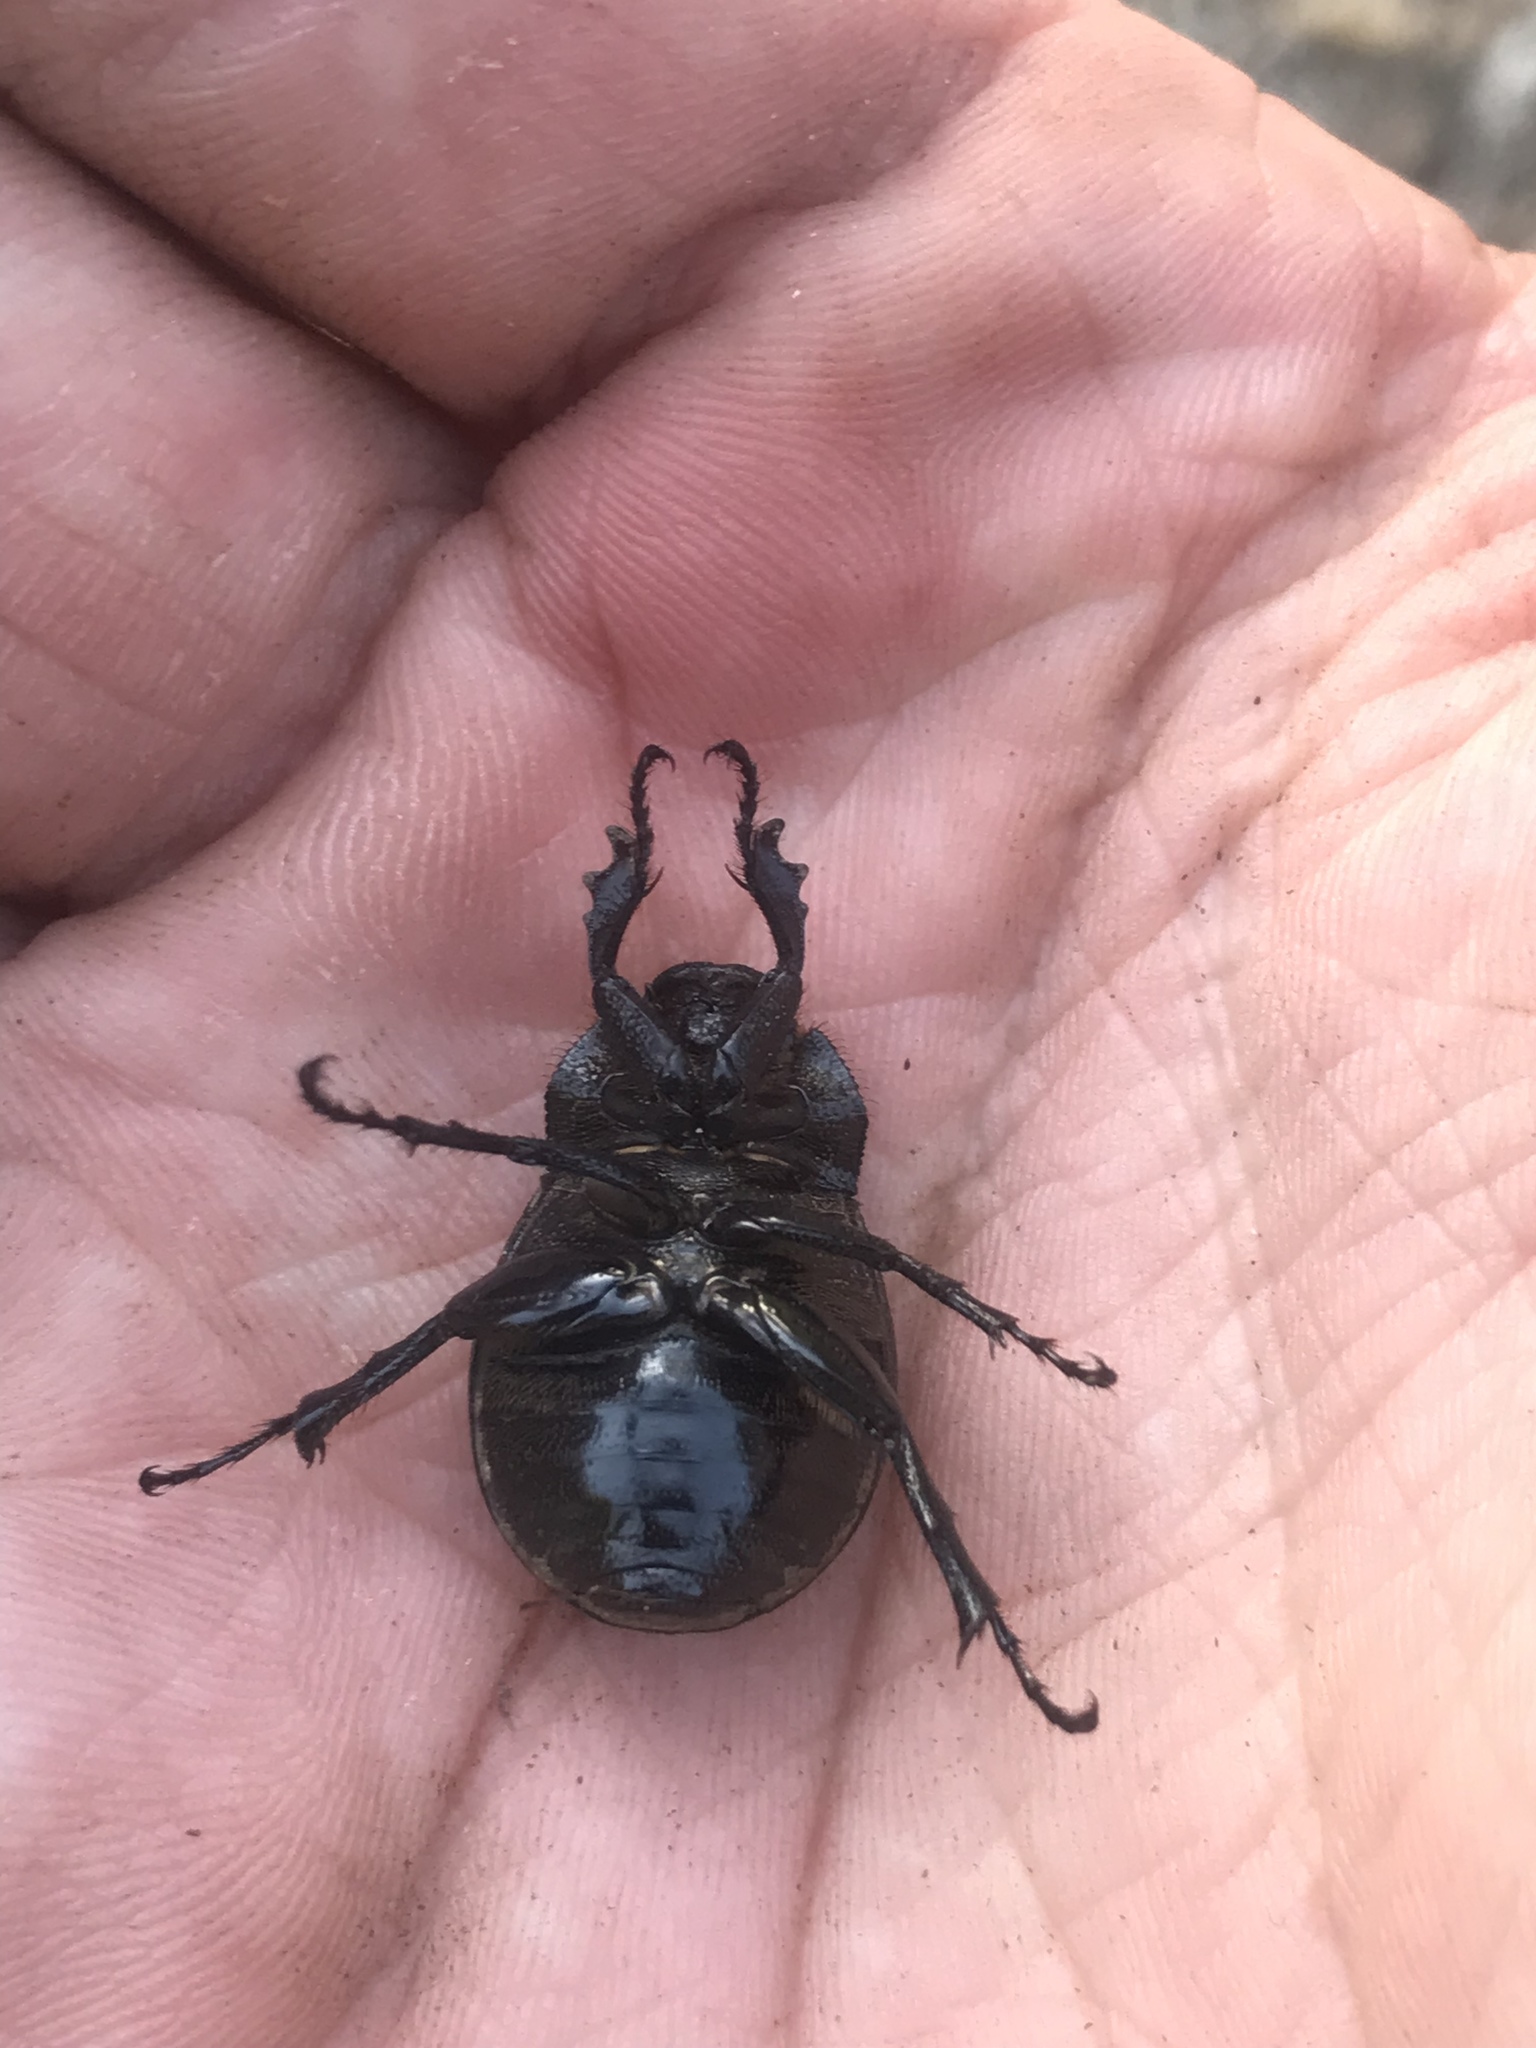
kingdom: Animalia
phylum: Arthropoda
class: Insecta
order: Coleoptera
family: Scarabaeidae
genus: Phyllophaga
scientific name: Phyllophaga cribrosa
